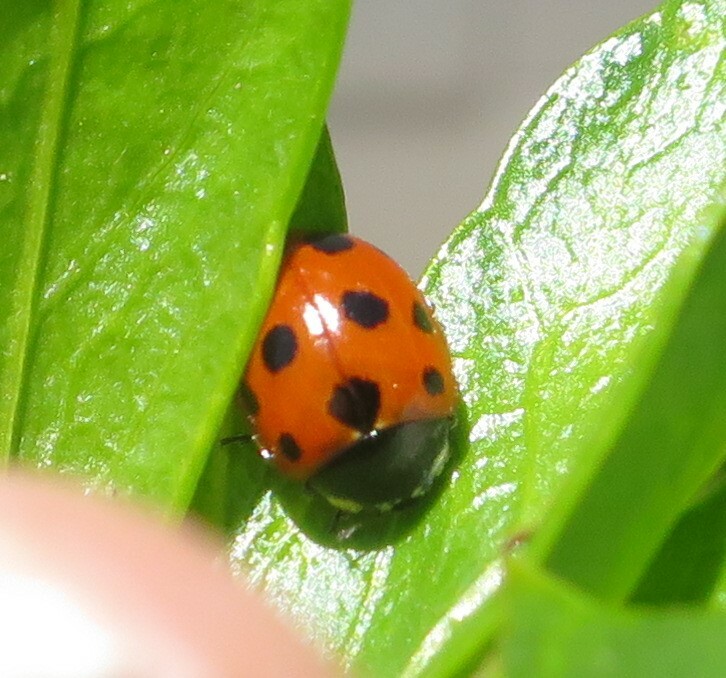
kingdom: Animalia
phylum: Arthropoda
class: Insecta
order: Coleoptera
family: Coccinellidae
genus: Coccinella
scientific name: Coccinella undecimpunctata
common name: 11-spot ladybird
